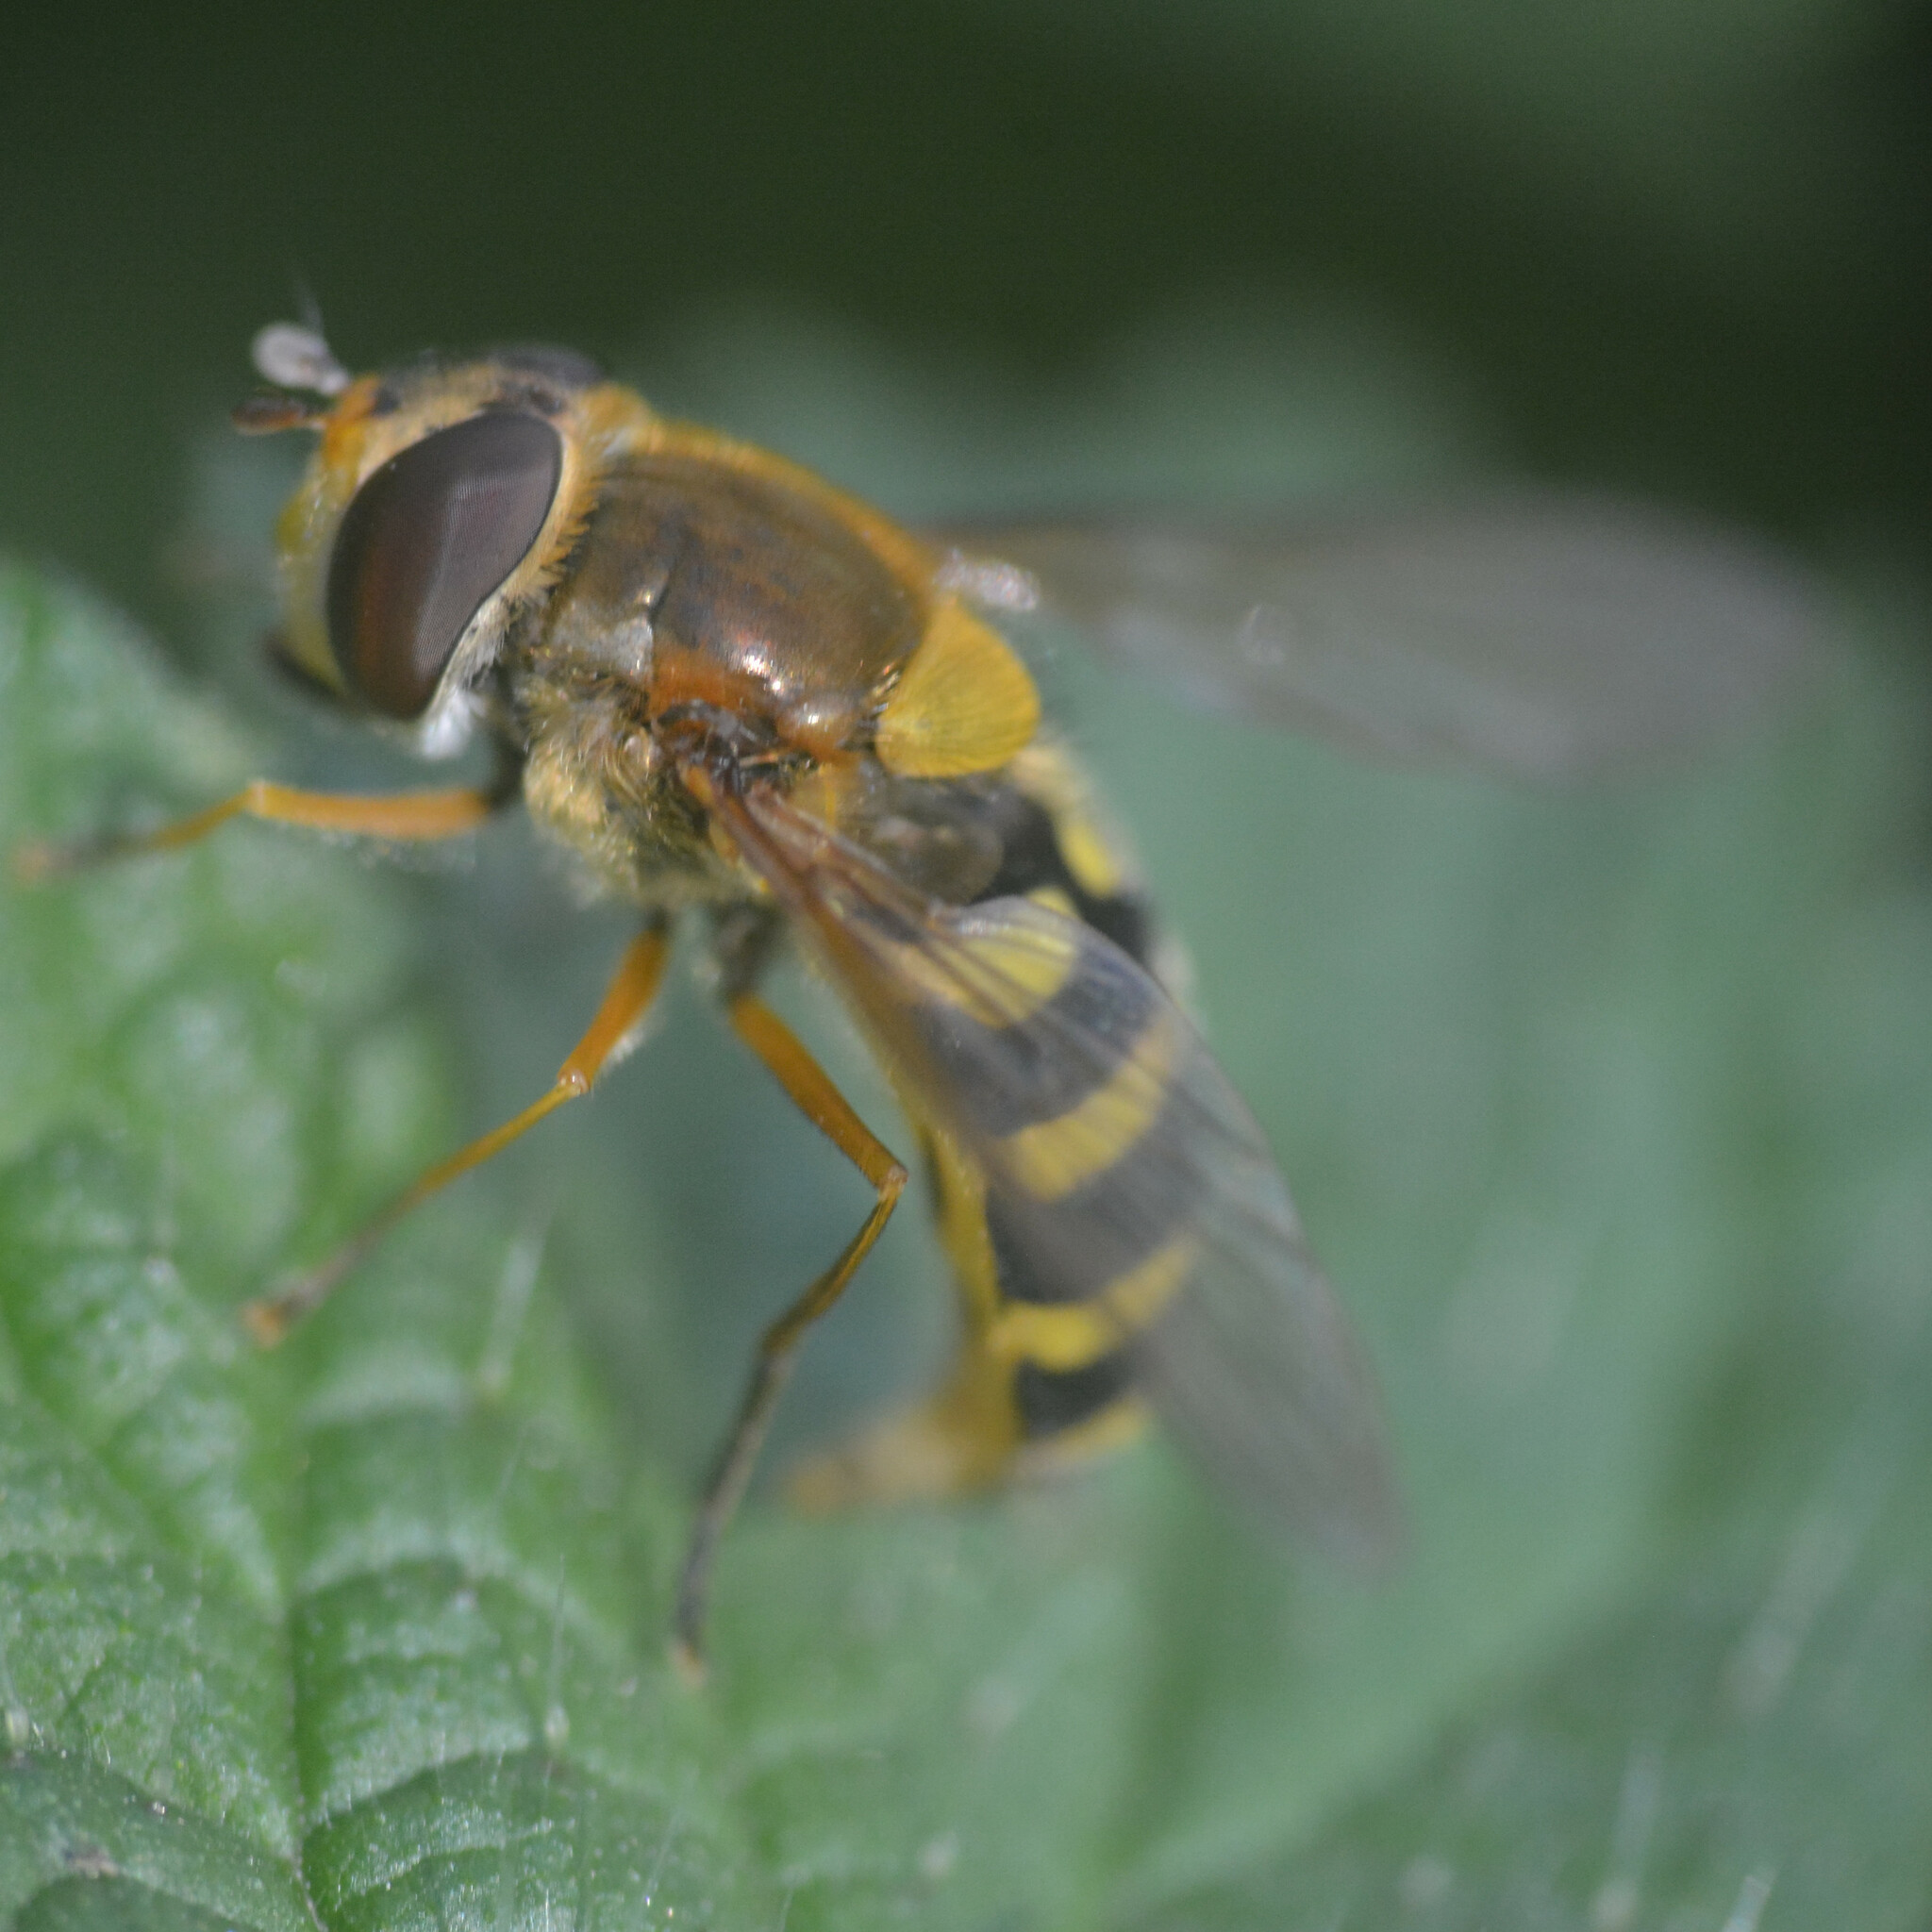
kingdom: Animalia
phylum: Arthropoda
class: Insecta
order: Diptera
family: Syrphidae
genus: Syrphus
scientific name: Syrphus ribesii
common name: Common flower fly
